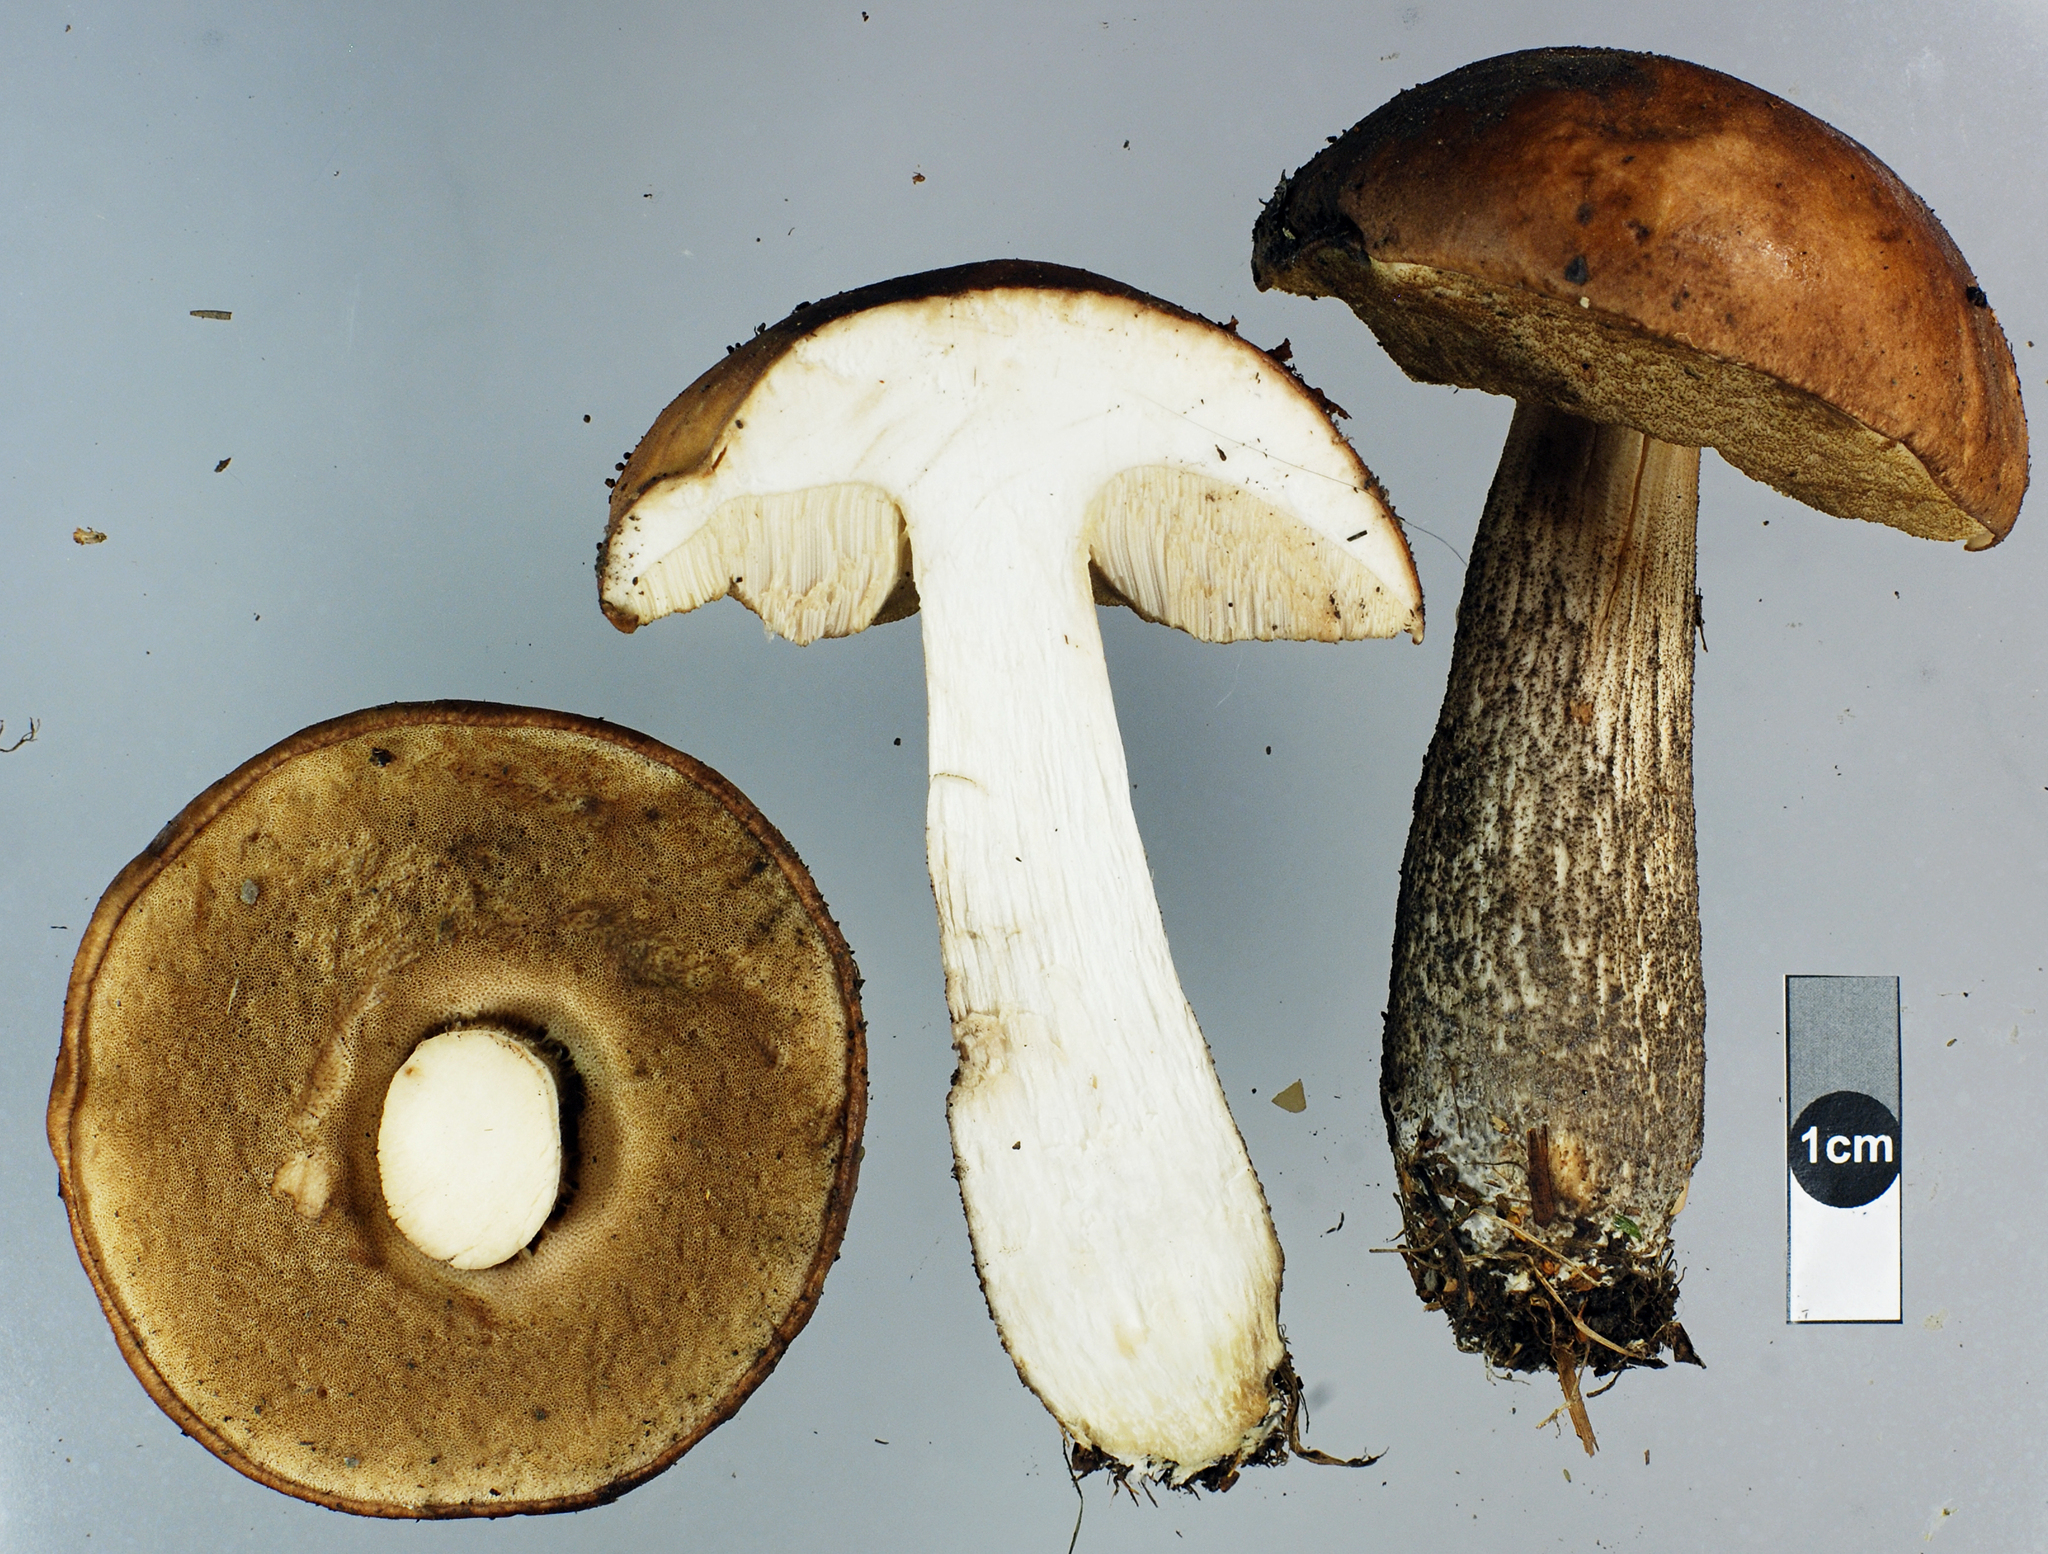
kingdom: Fungi
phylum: Basidiomycota
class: Agaricomycetes
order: Boletales
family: Boletaceae
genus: Leccinum
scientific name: Leccinum scabrum
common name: Blushing bolete
